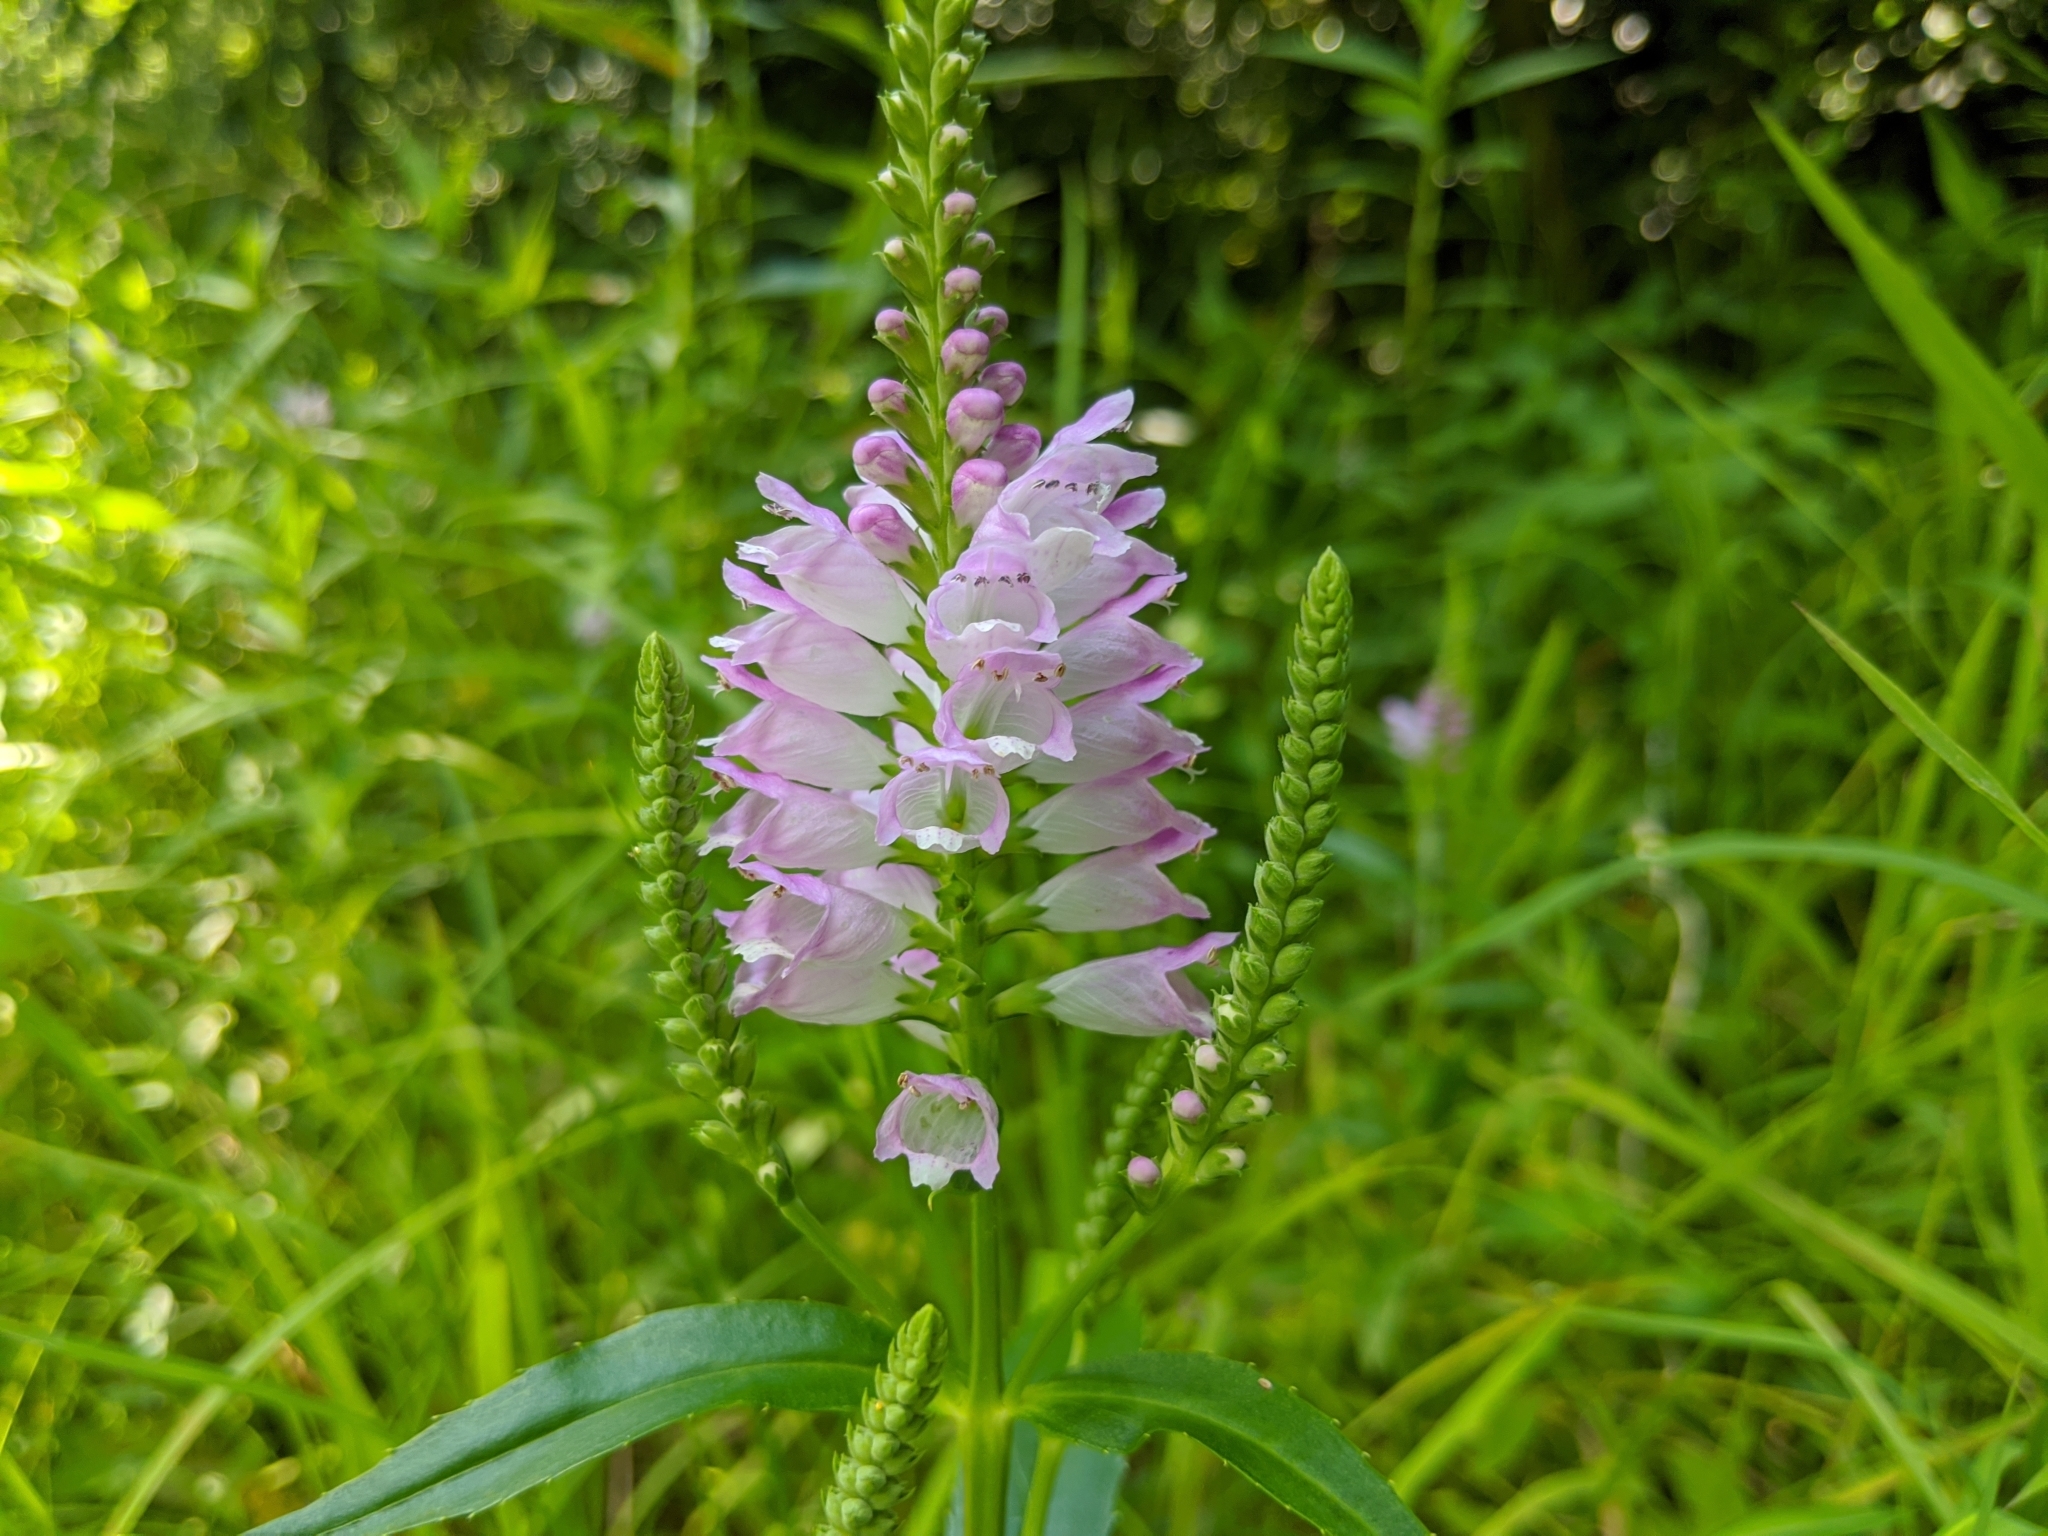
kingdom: Plantae
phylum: Tracheophyta
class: Magnoliopsida
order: Lamiales
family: Lamiaceae
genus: Physostegia
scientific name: Physostegia virginiana
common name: Obedient-plant
